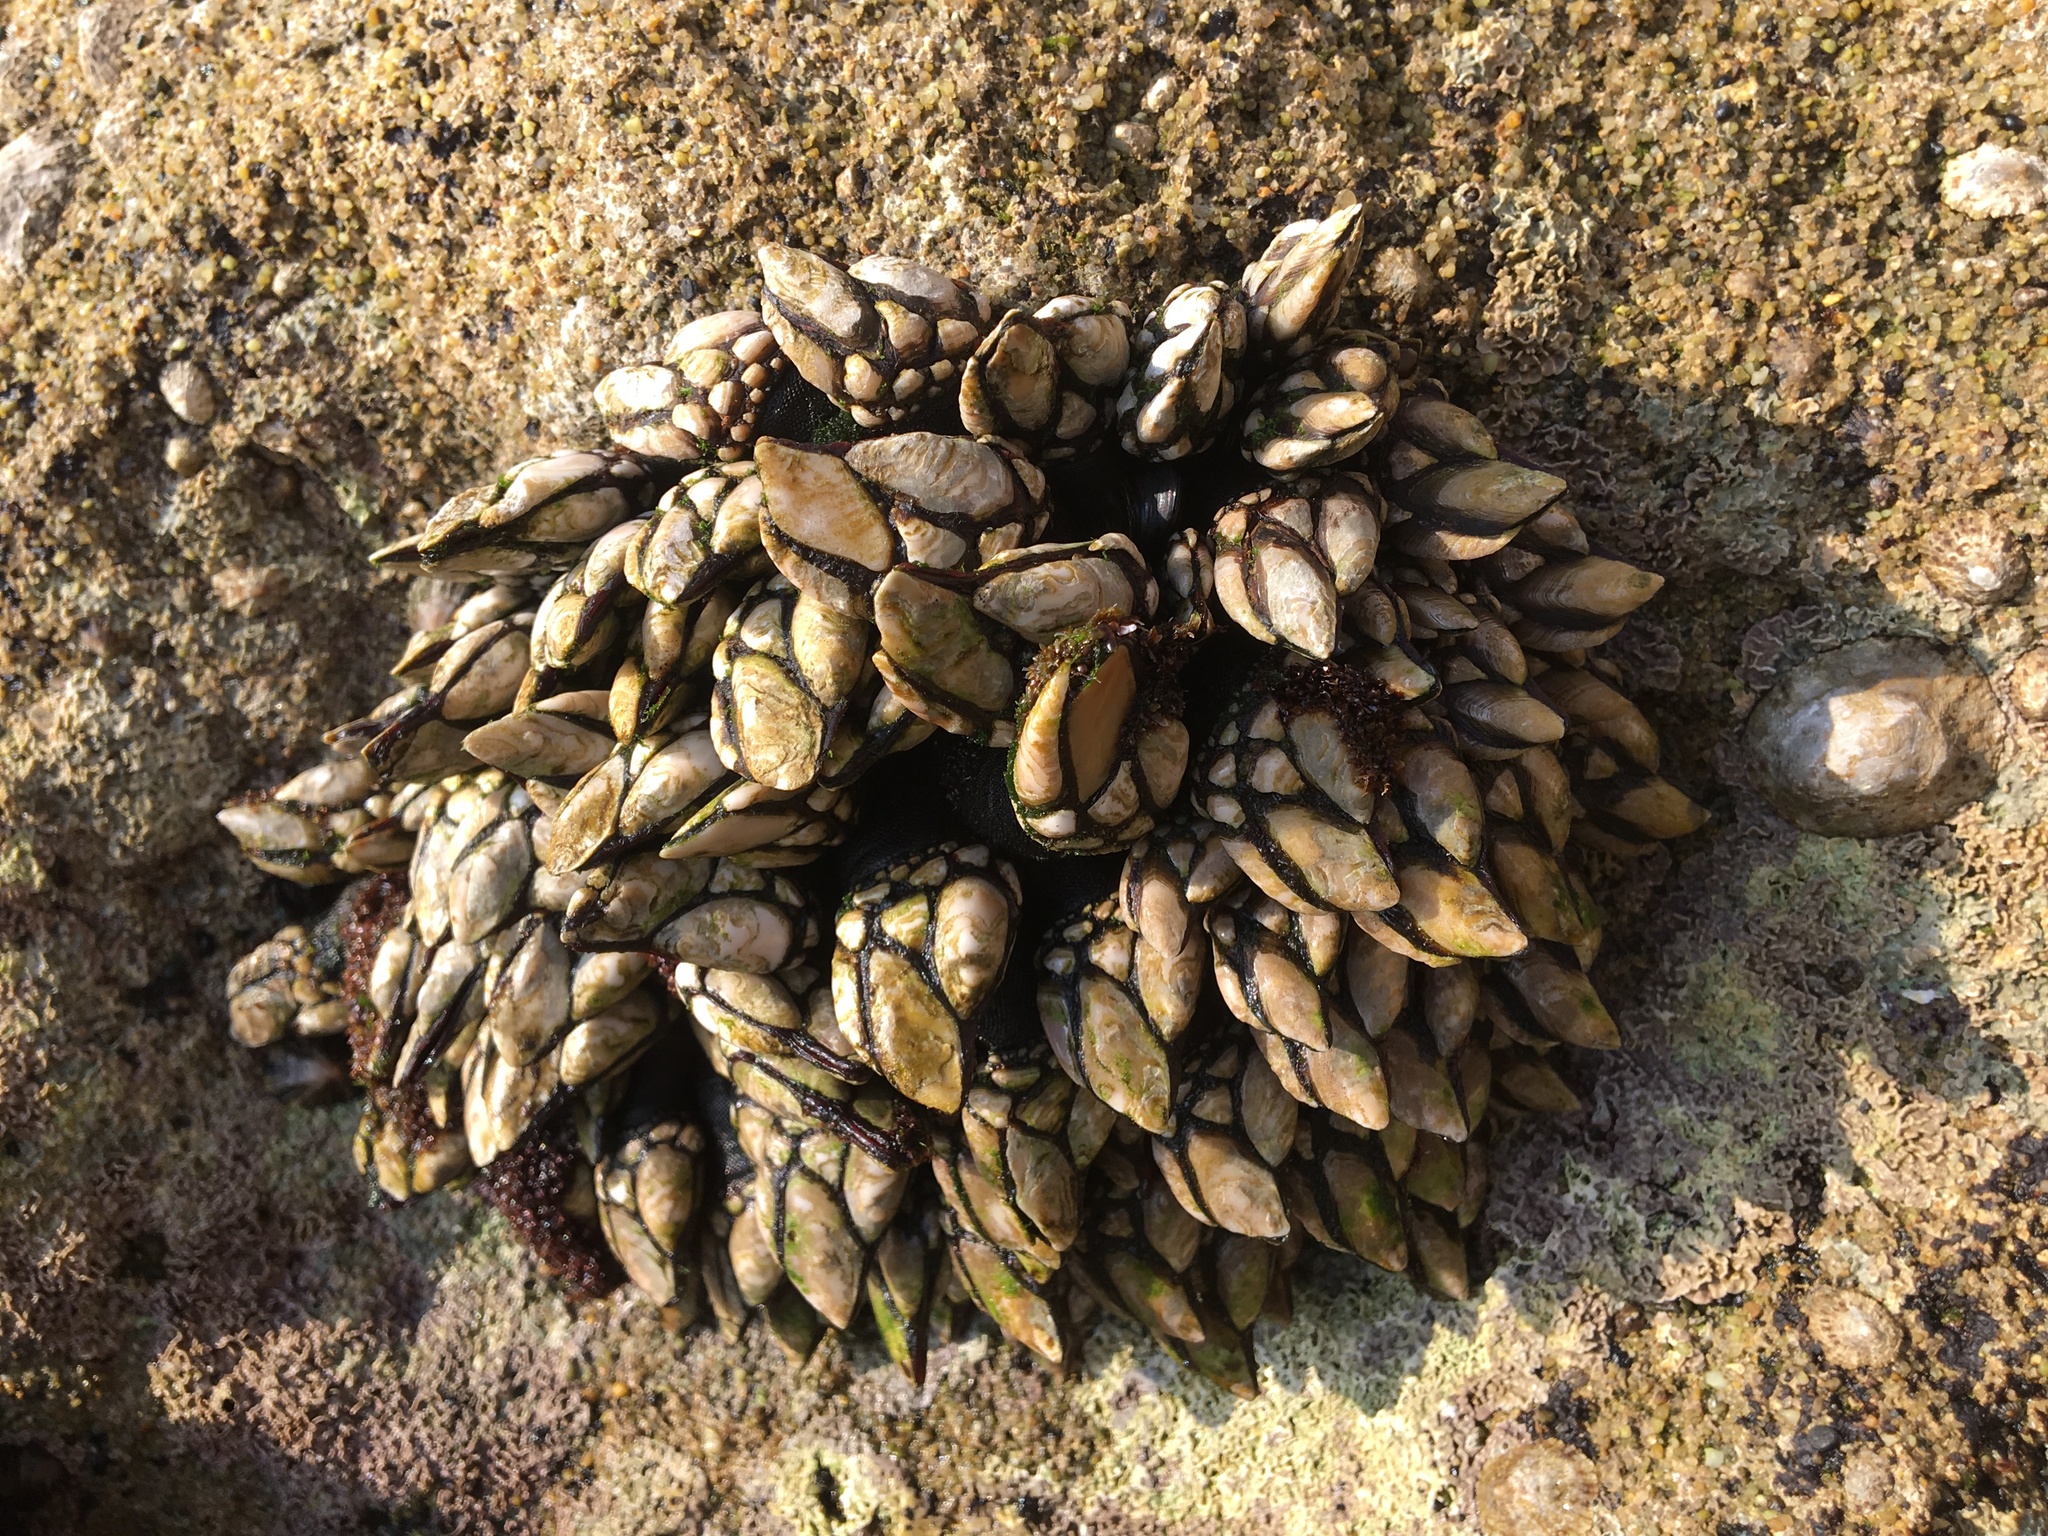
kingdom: Animalia
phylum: Arthropoda
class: Maxillopoda
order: Pedunculata
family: Pollicipedidae
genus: Pollicipes
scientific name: Pollicipes pollicipes
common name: Gooseneck barnacle
